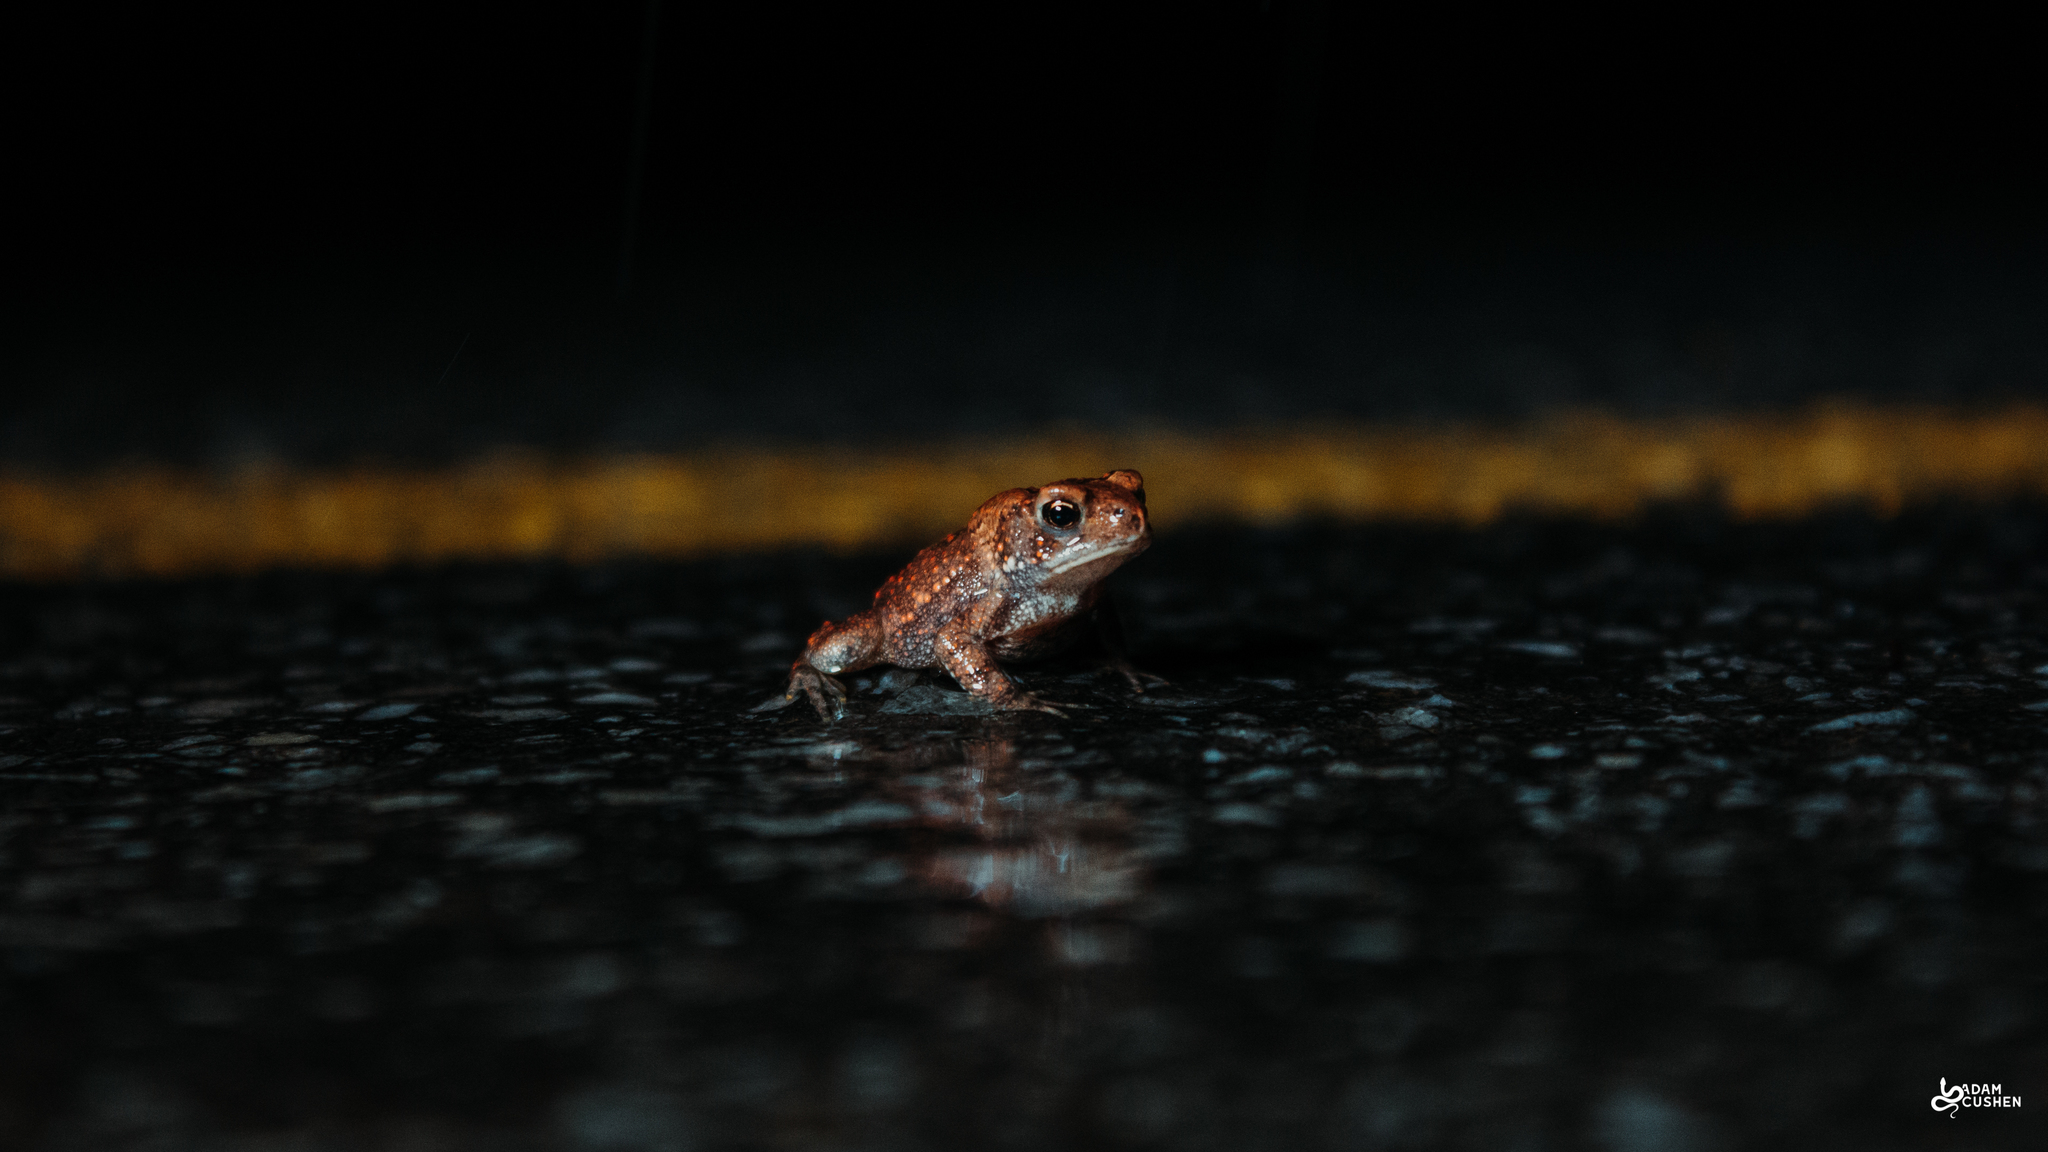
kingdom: Animalia
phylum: Chordata
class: Amphibia
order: Anura
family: Bufonidae
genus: Anaxyrus
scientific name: Anaxyrus americanus
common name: American toad
